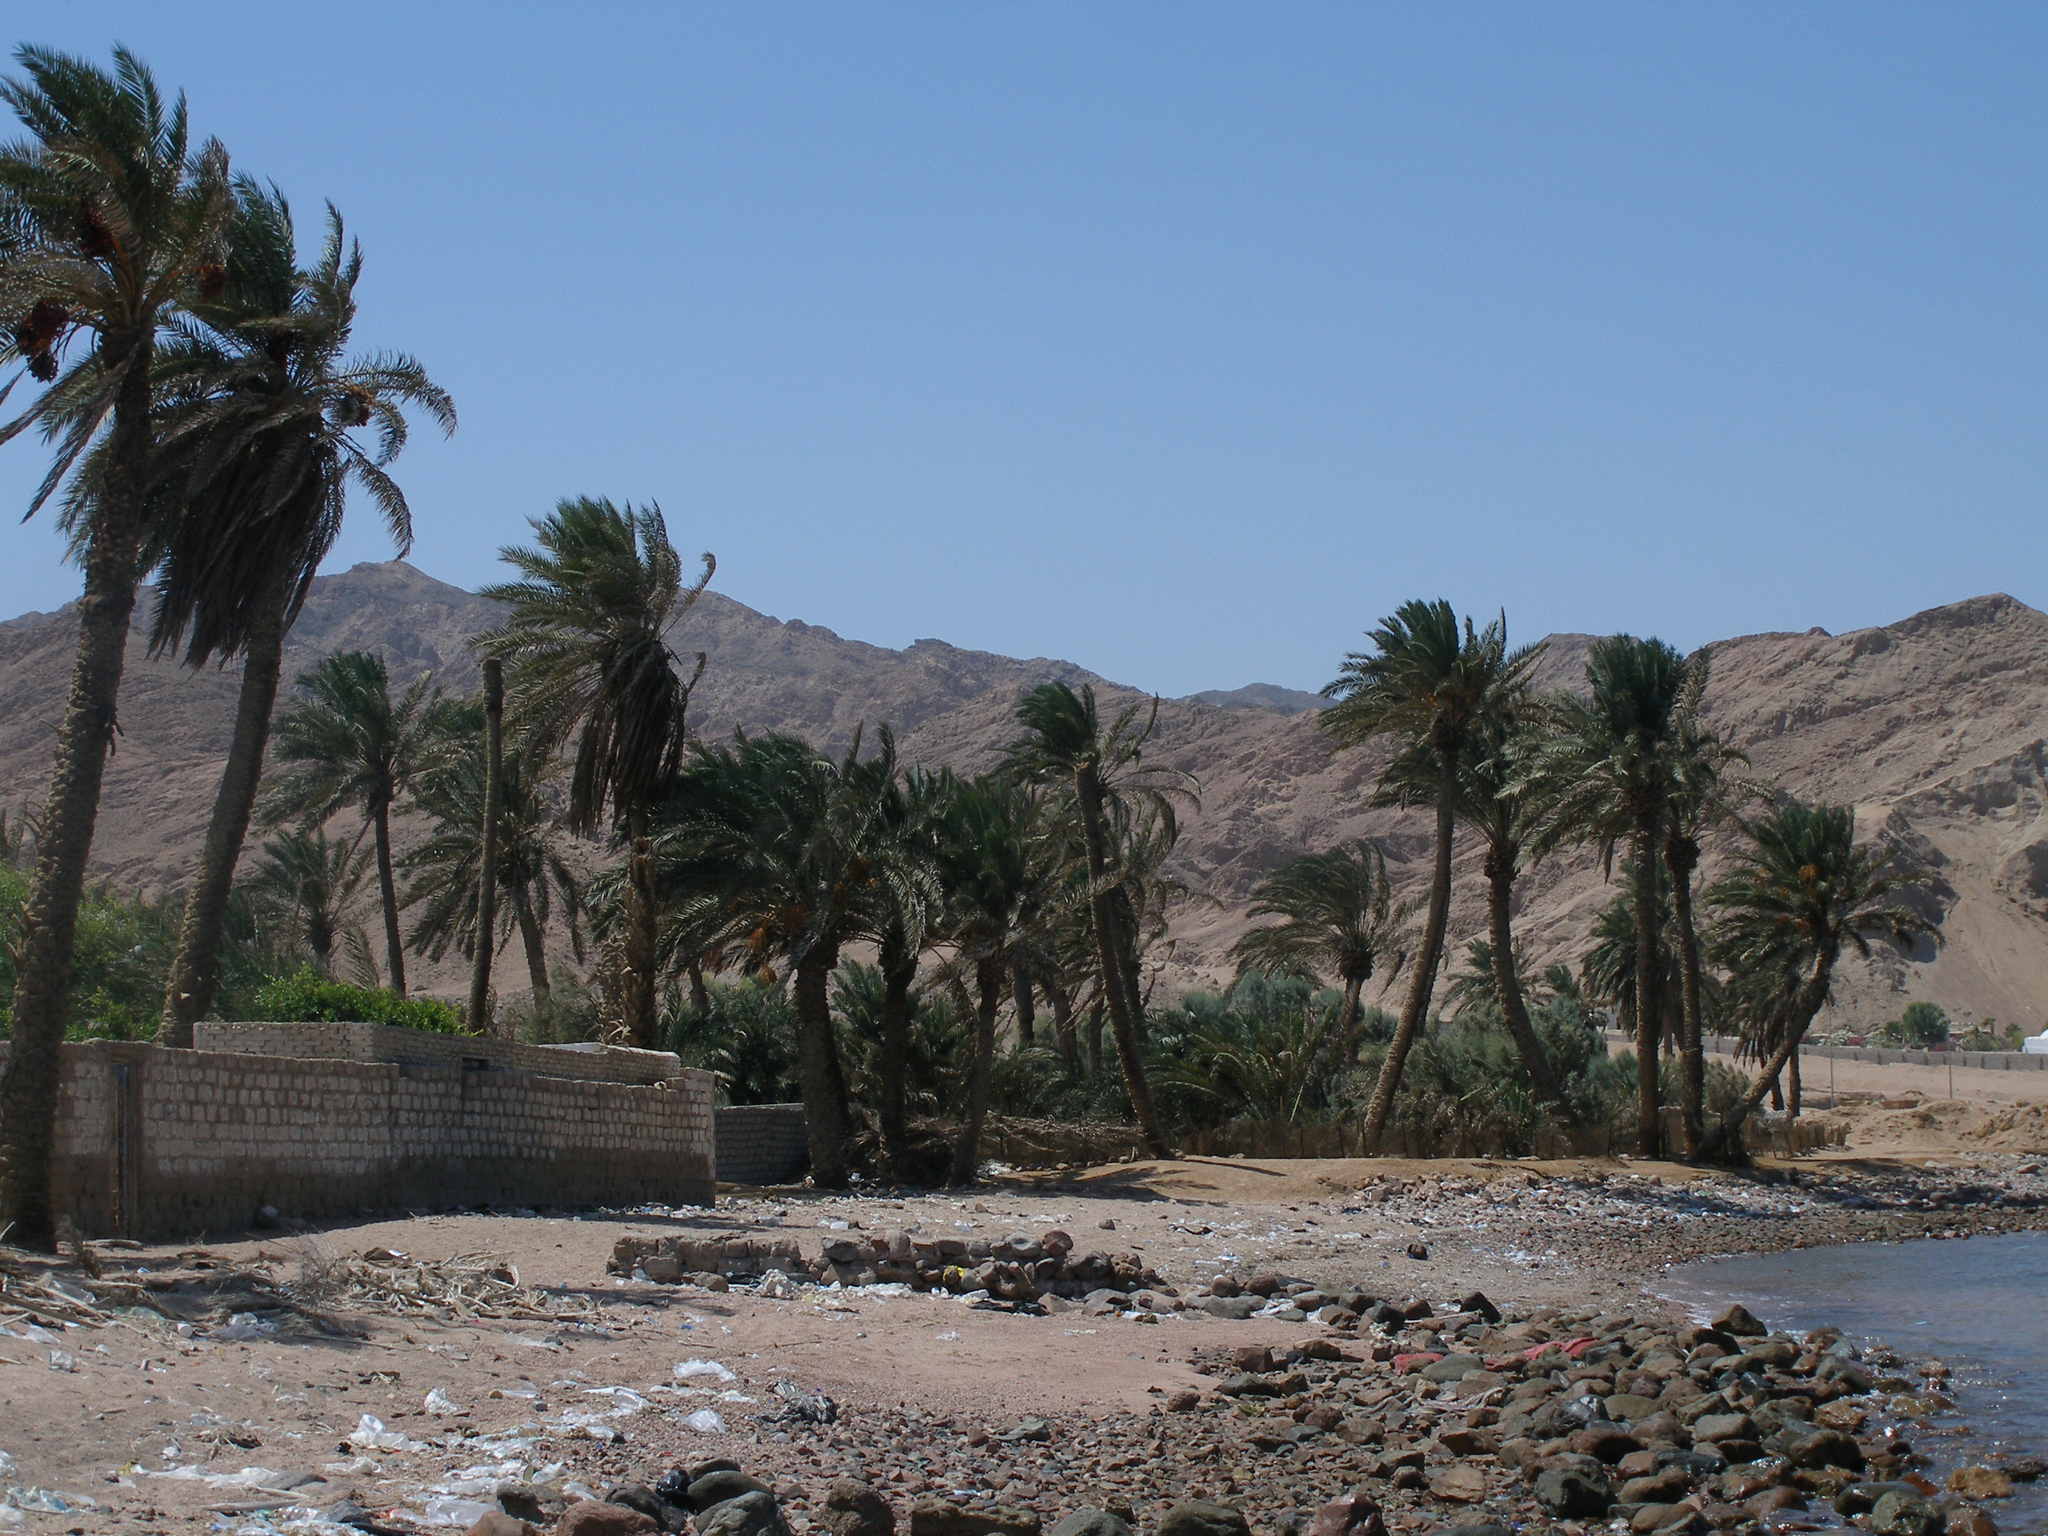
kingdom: Plantae
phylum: Tracheophyta
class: Liliopsida
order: Arecales
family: Arecaceae
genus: Phoenix
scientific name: Phoenix dactylifera
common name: Date palm
